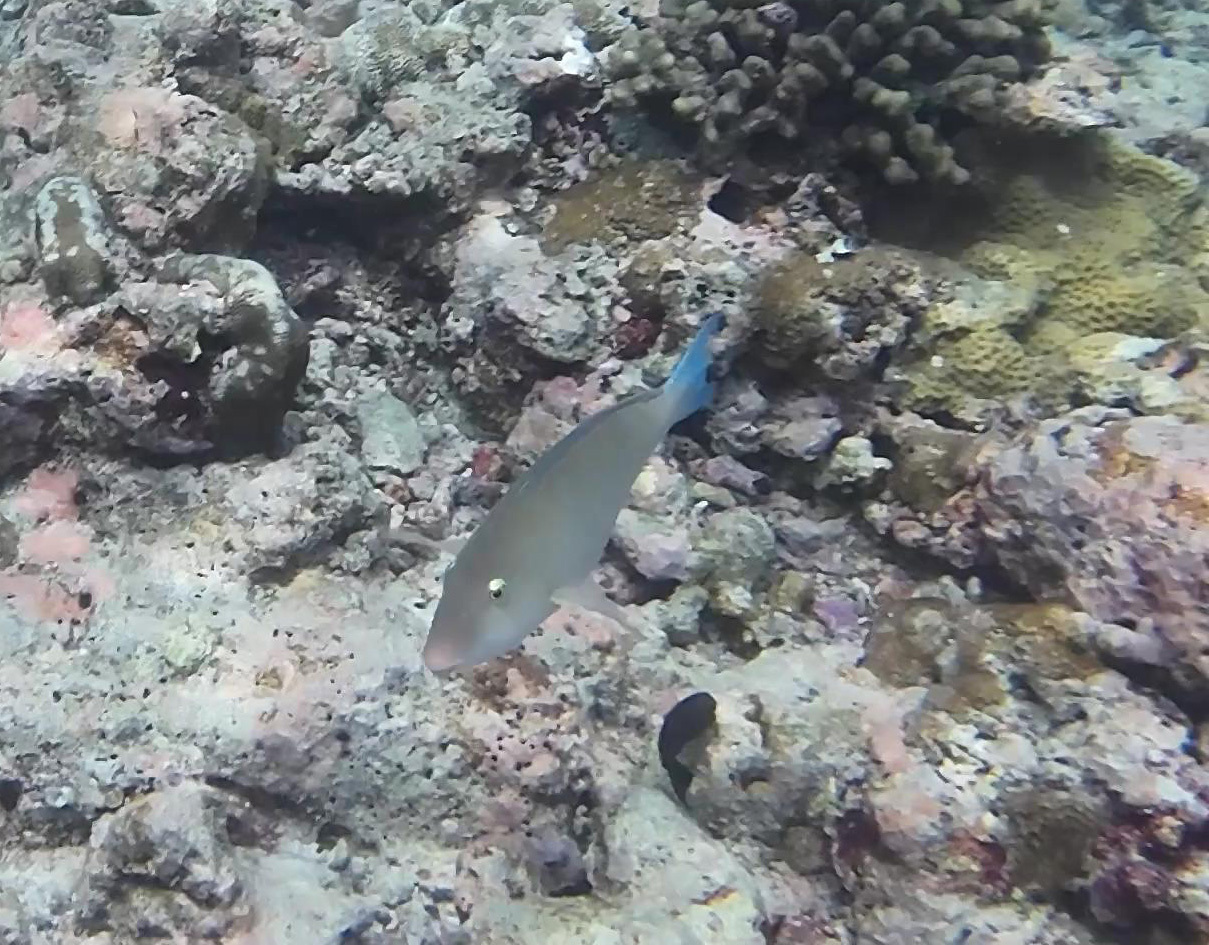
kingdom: Animalia
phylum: Chordata
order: Perciformes
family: Scaridae
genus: Hipposcarus
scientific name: Hipposcarus harid
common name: Candelamoa parrotfish
